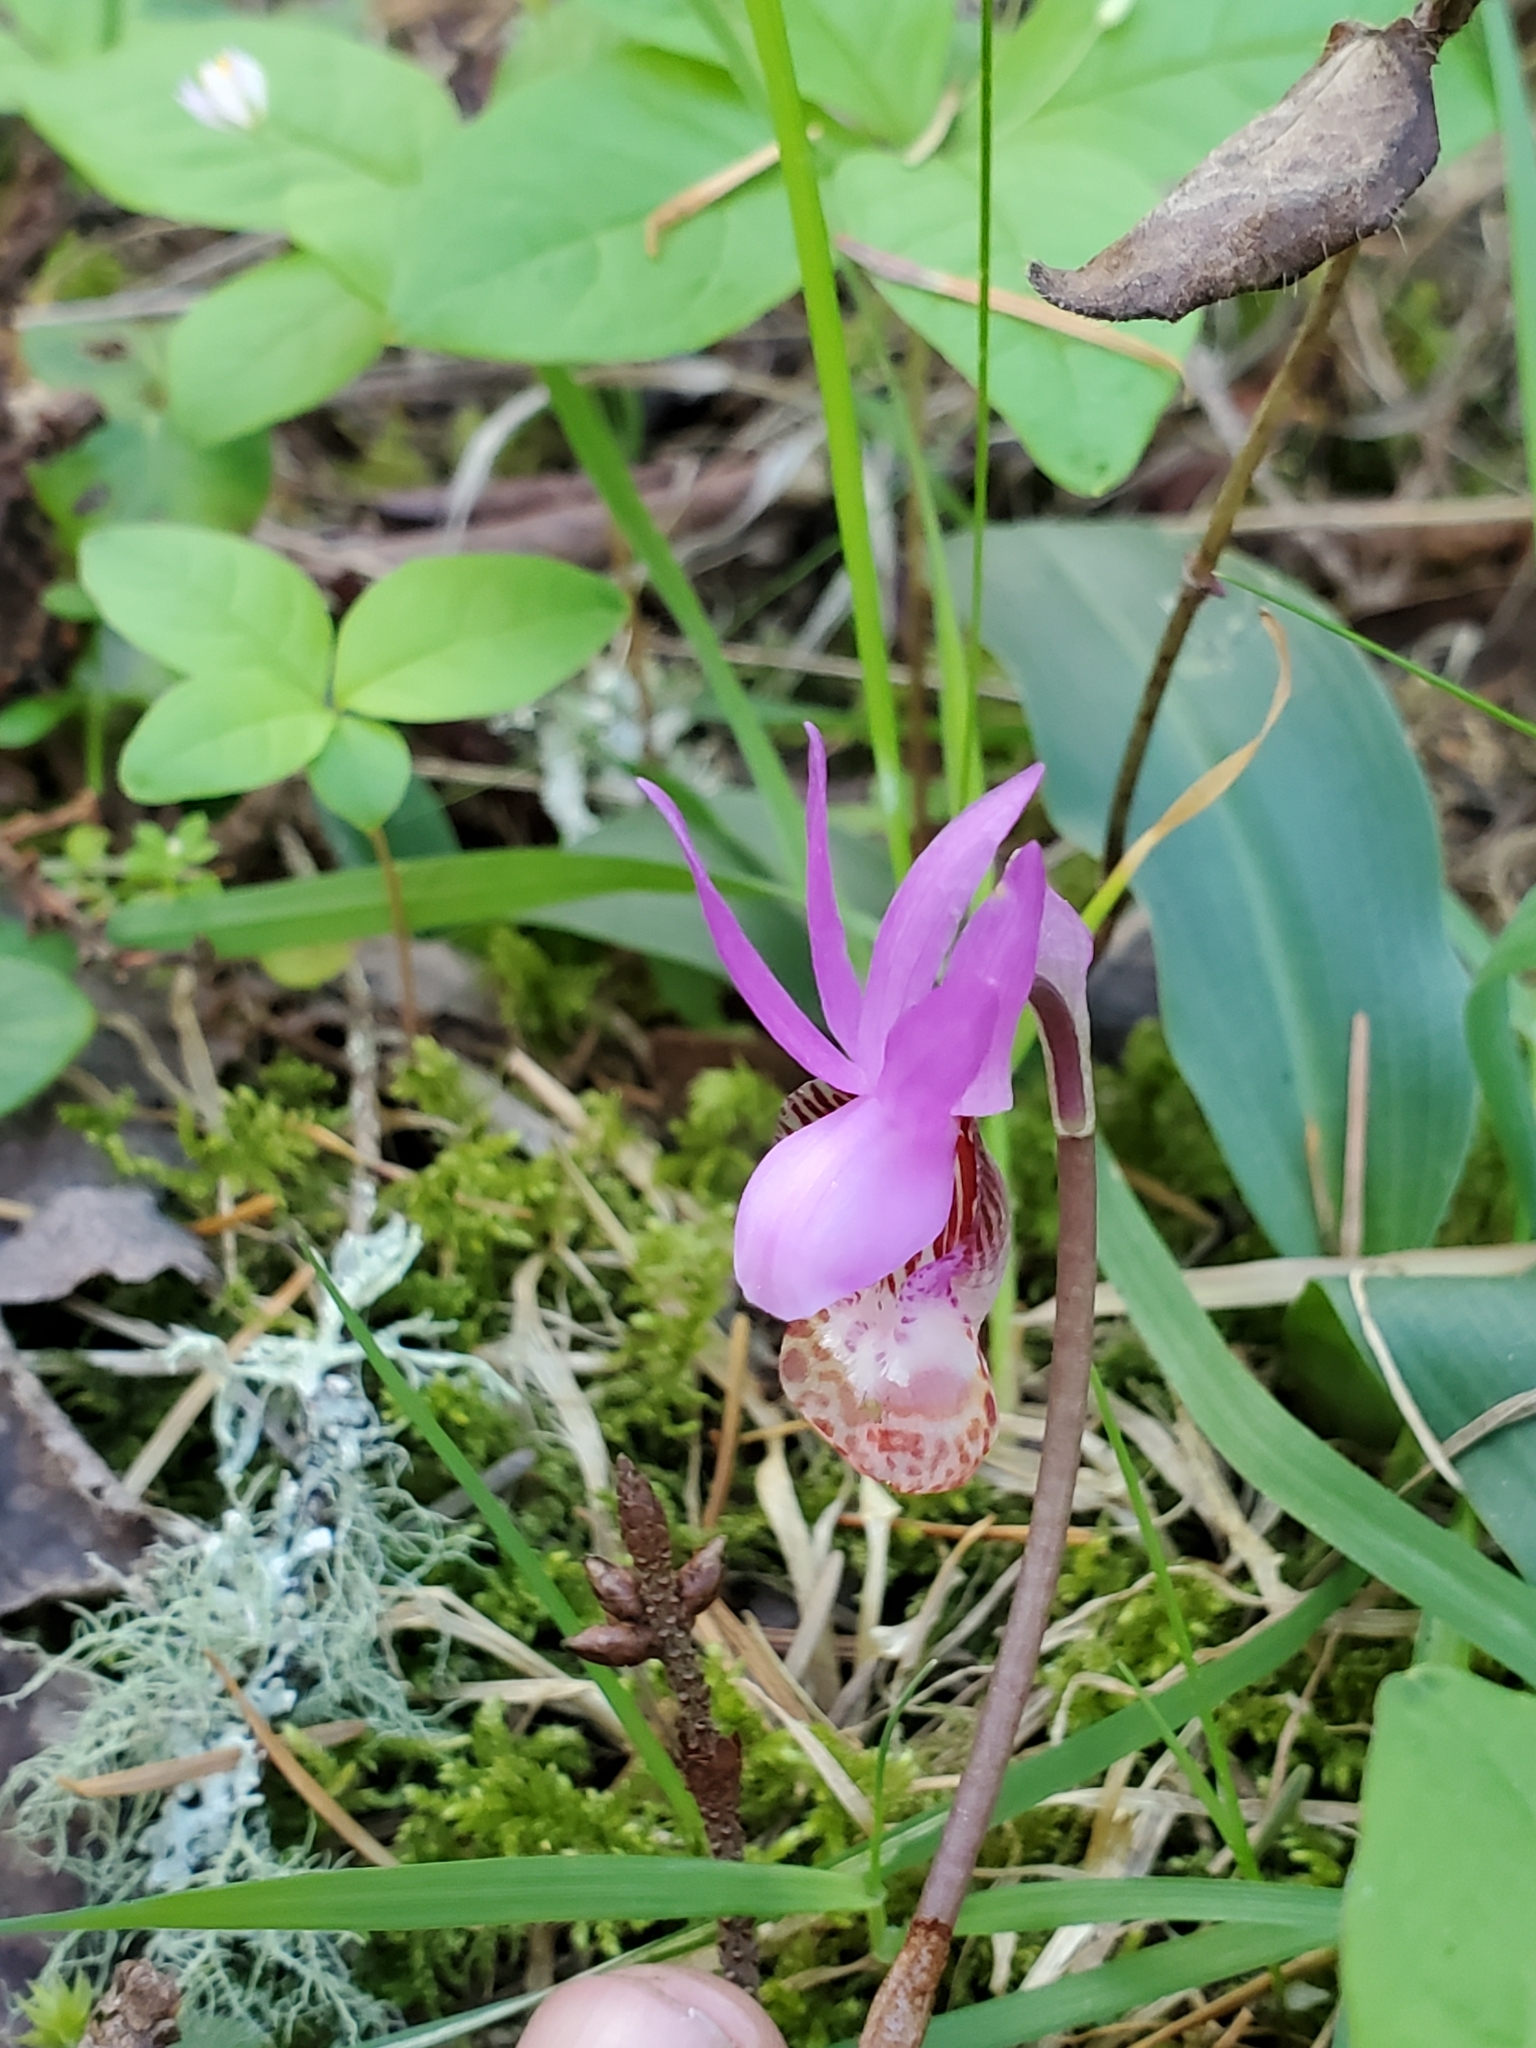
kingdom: Plantae
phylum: Tracheophyta
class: Liliopsida
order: Asparagales
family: Orchidaceae
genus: Calypso
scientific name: Calypso bulbosa
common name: Calypso
